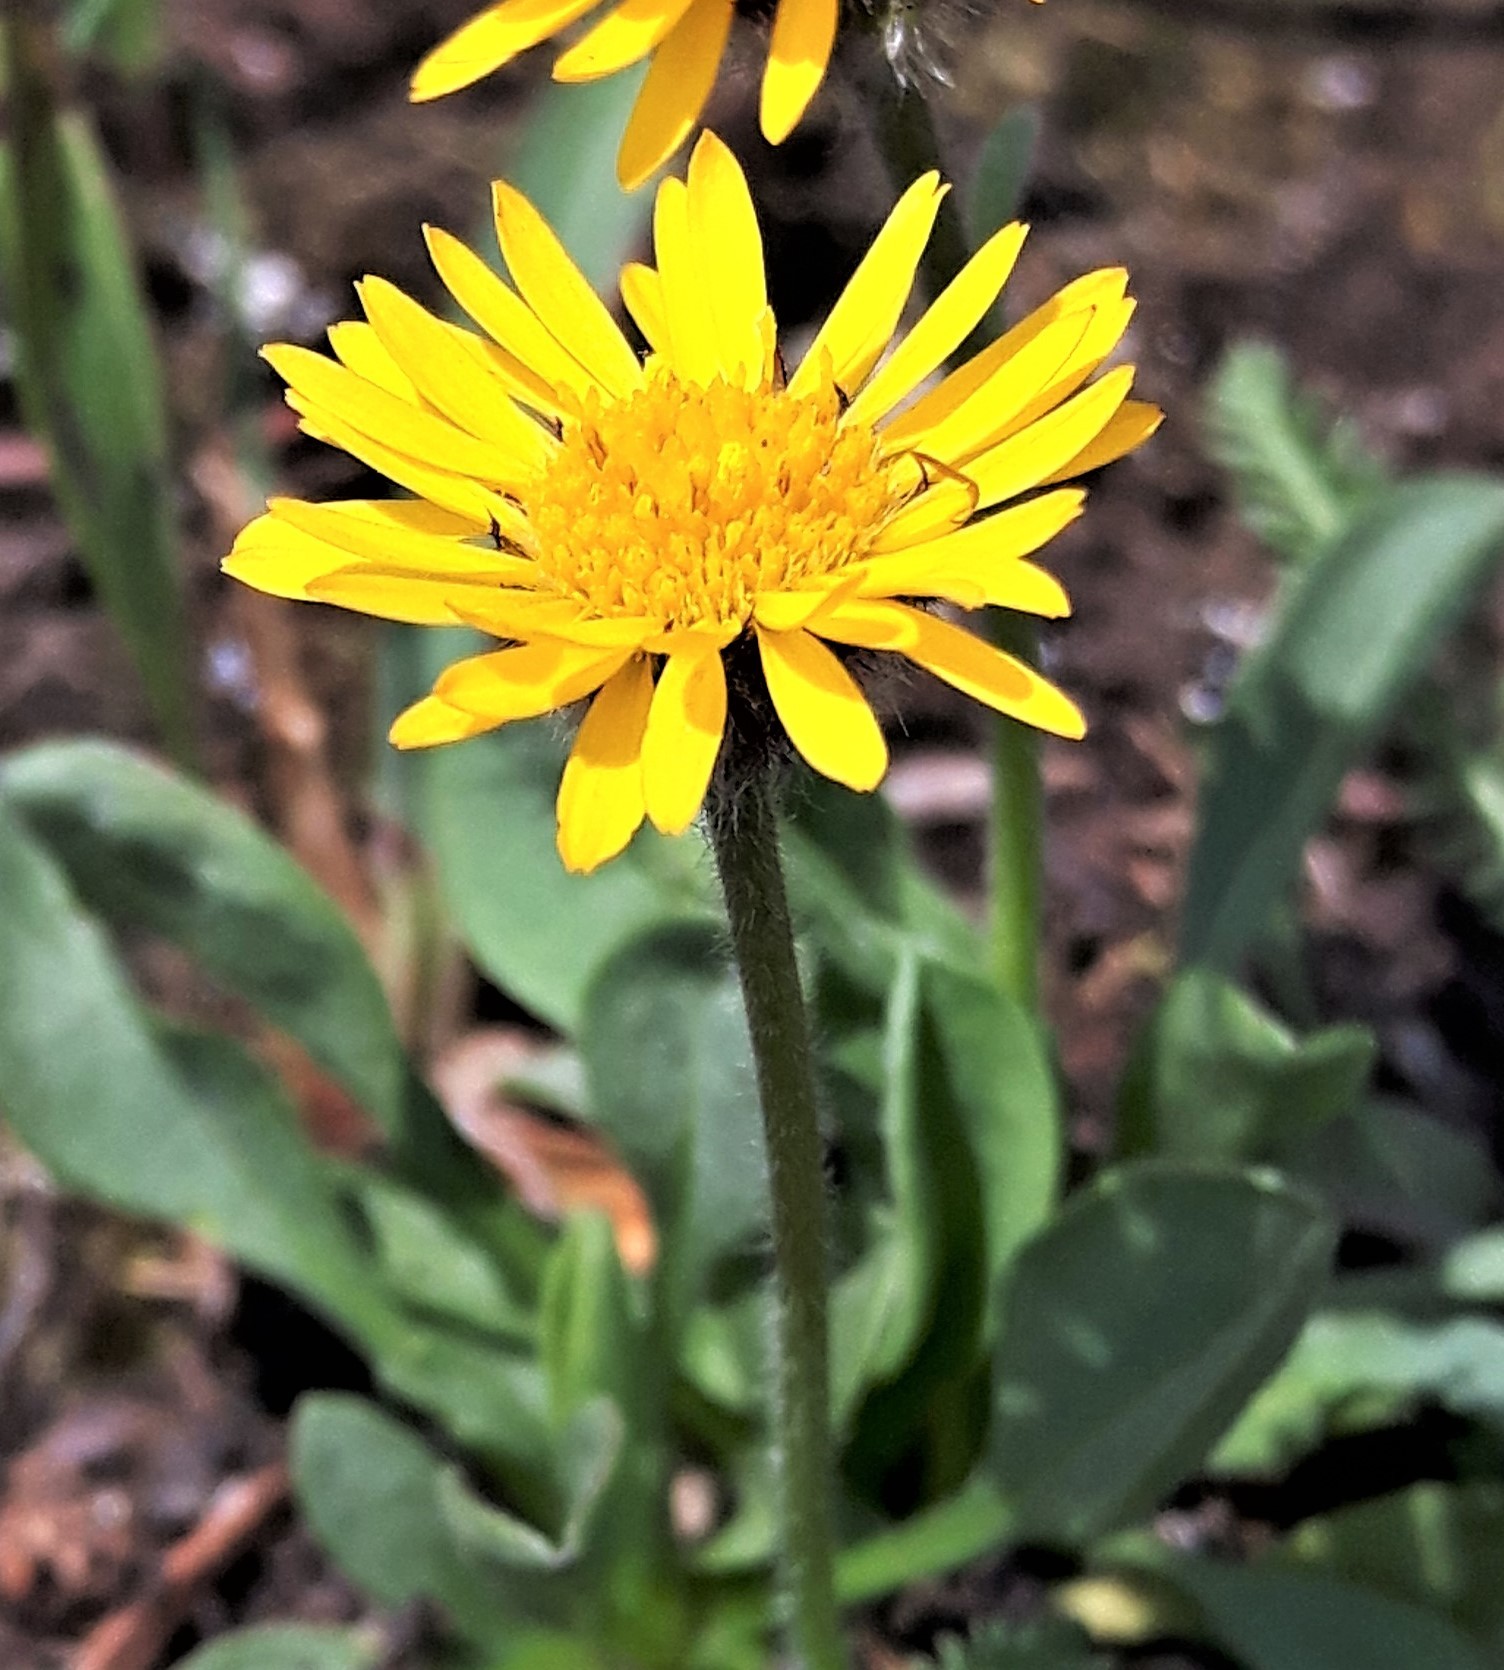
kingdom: Plantae
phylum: Tracheophyta
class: Magnoliopsida
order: Asterales
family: Asteraceae
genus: Erigeron
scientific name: Erigeron aureus
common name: Alpine yellow fleabane
